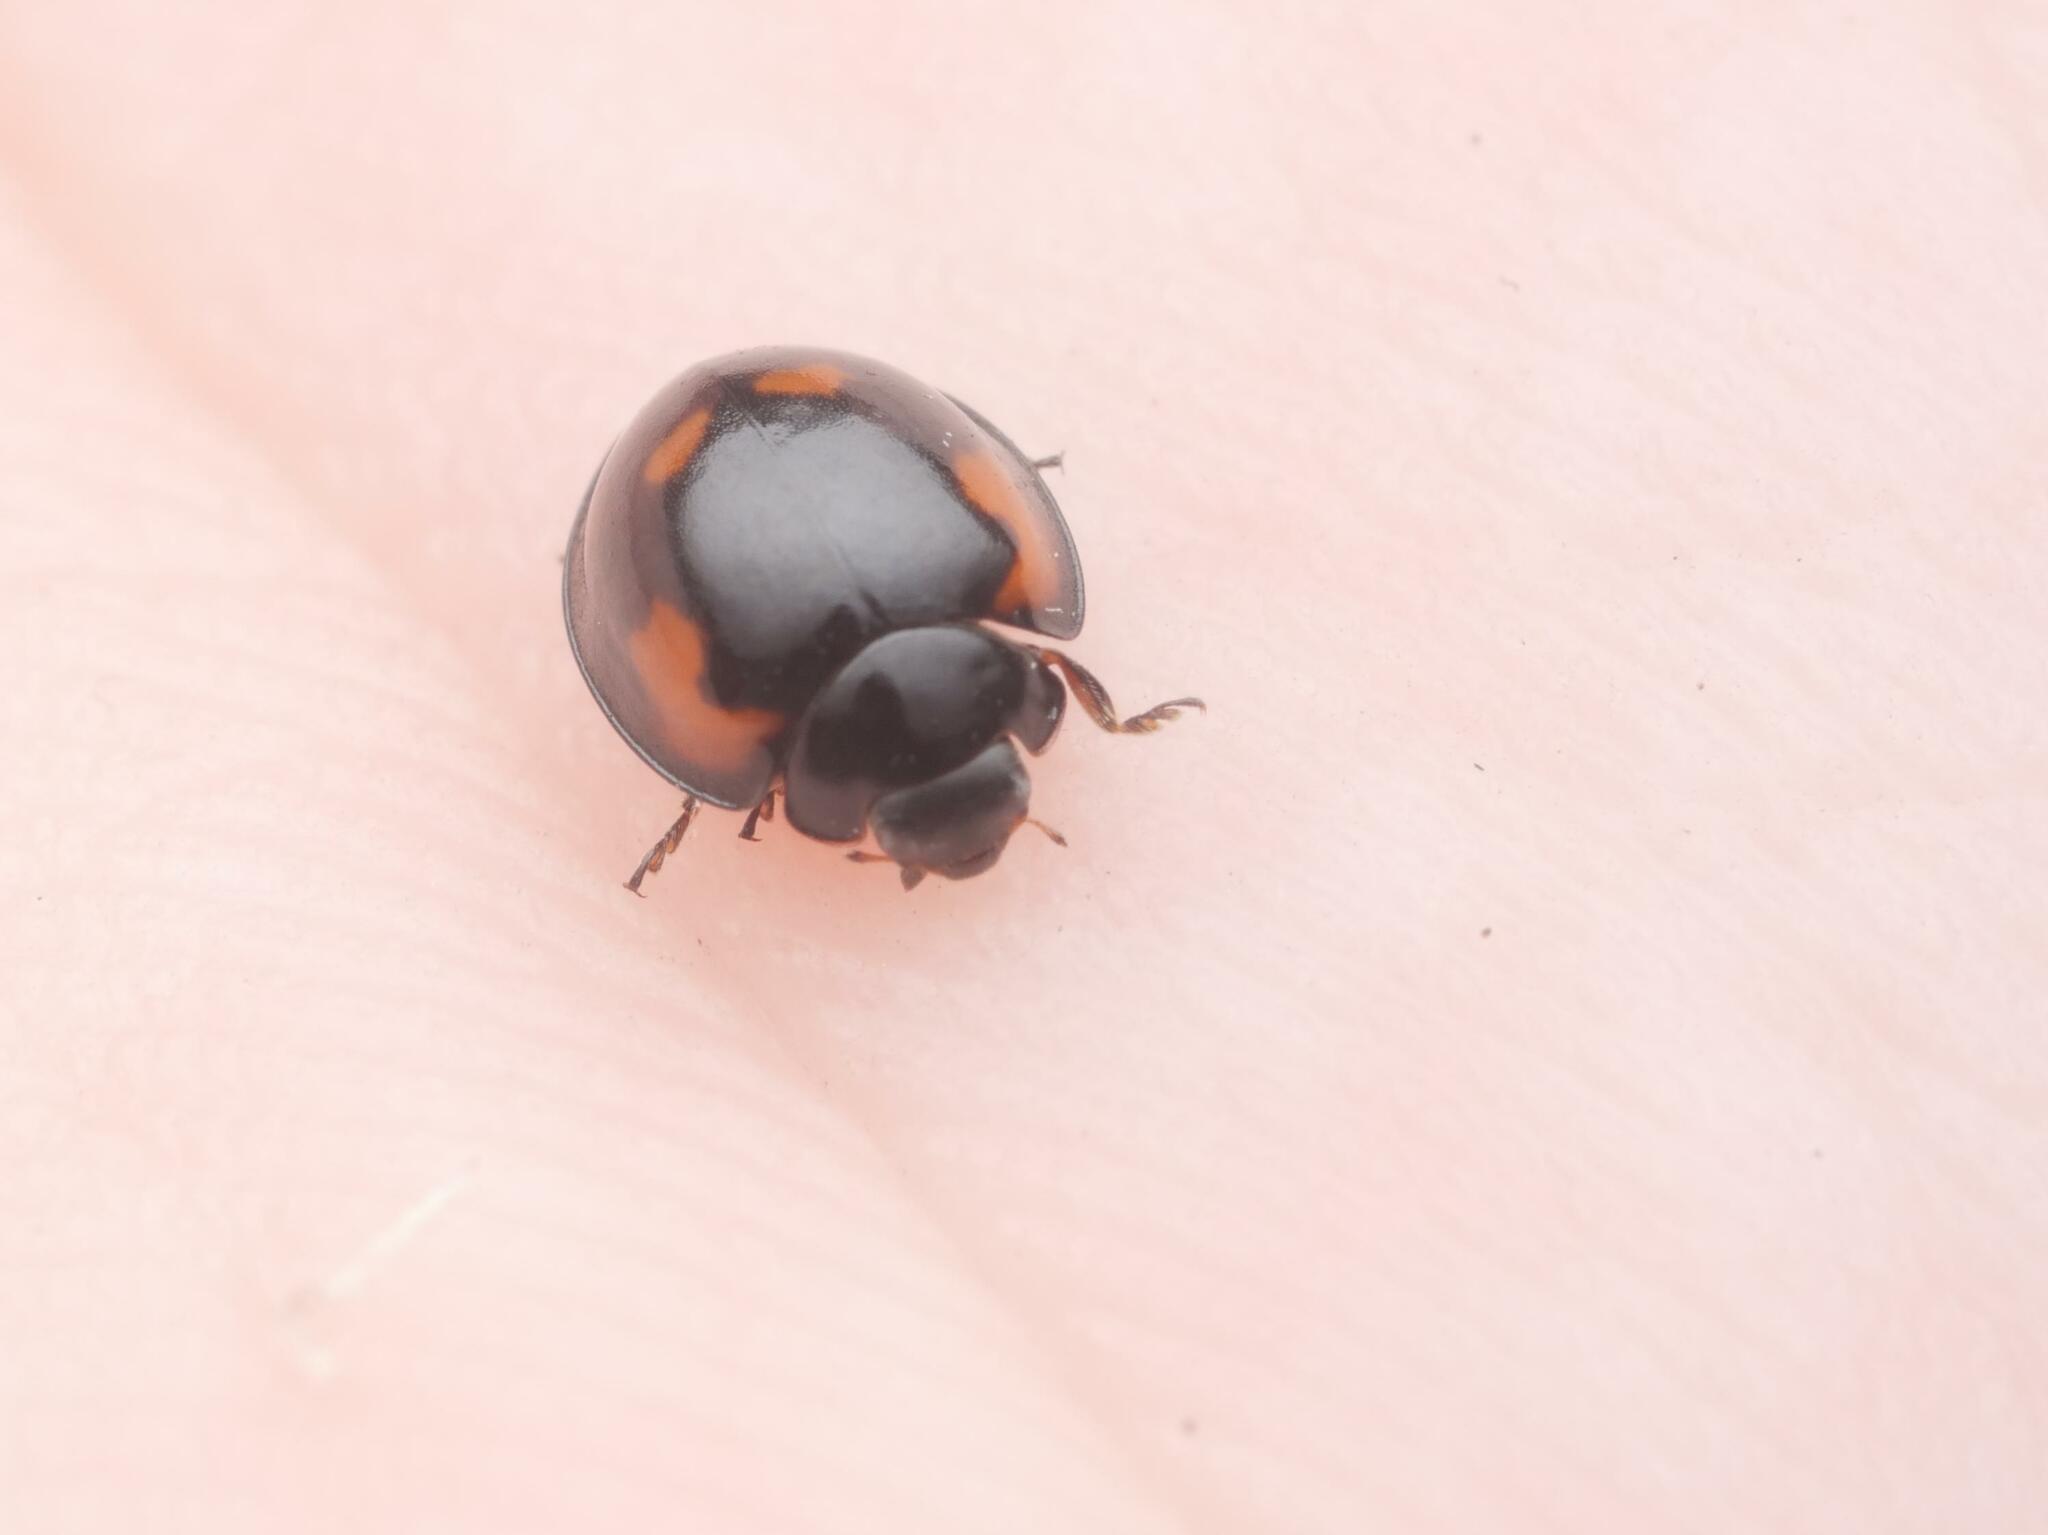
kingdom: Animalia
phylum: Arthropoda
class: Insecta
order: Coleoptera
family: Coccinellidae
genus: Brumus
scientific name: Brumus quadripustulatus
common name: Ladybird beetle
